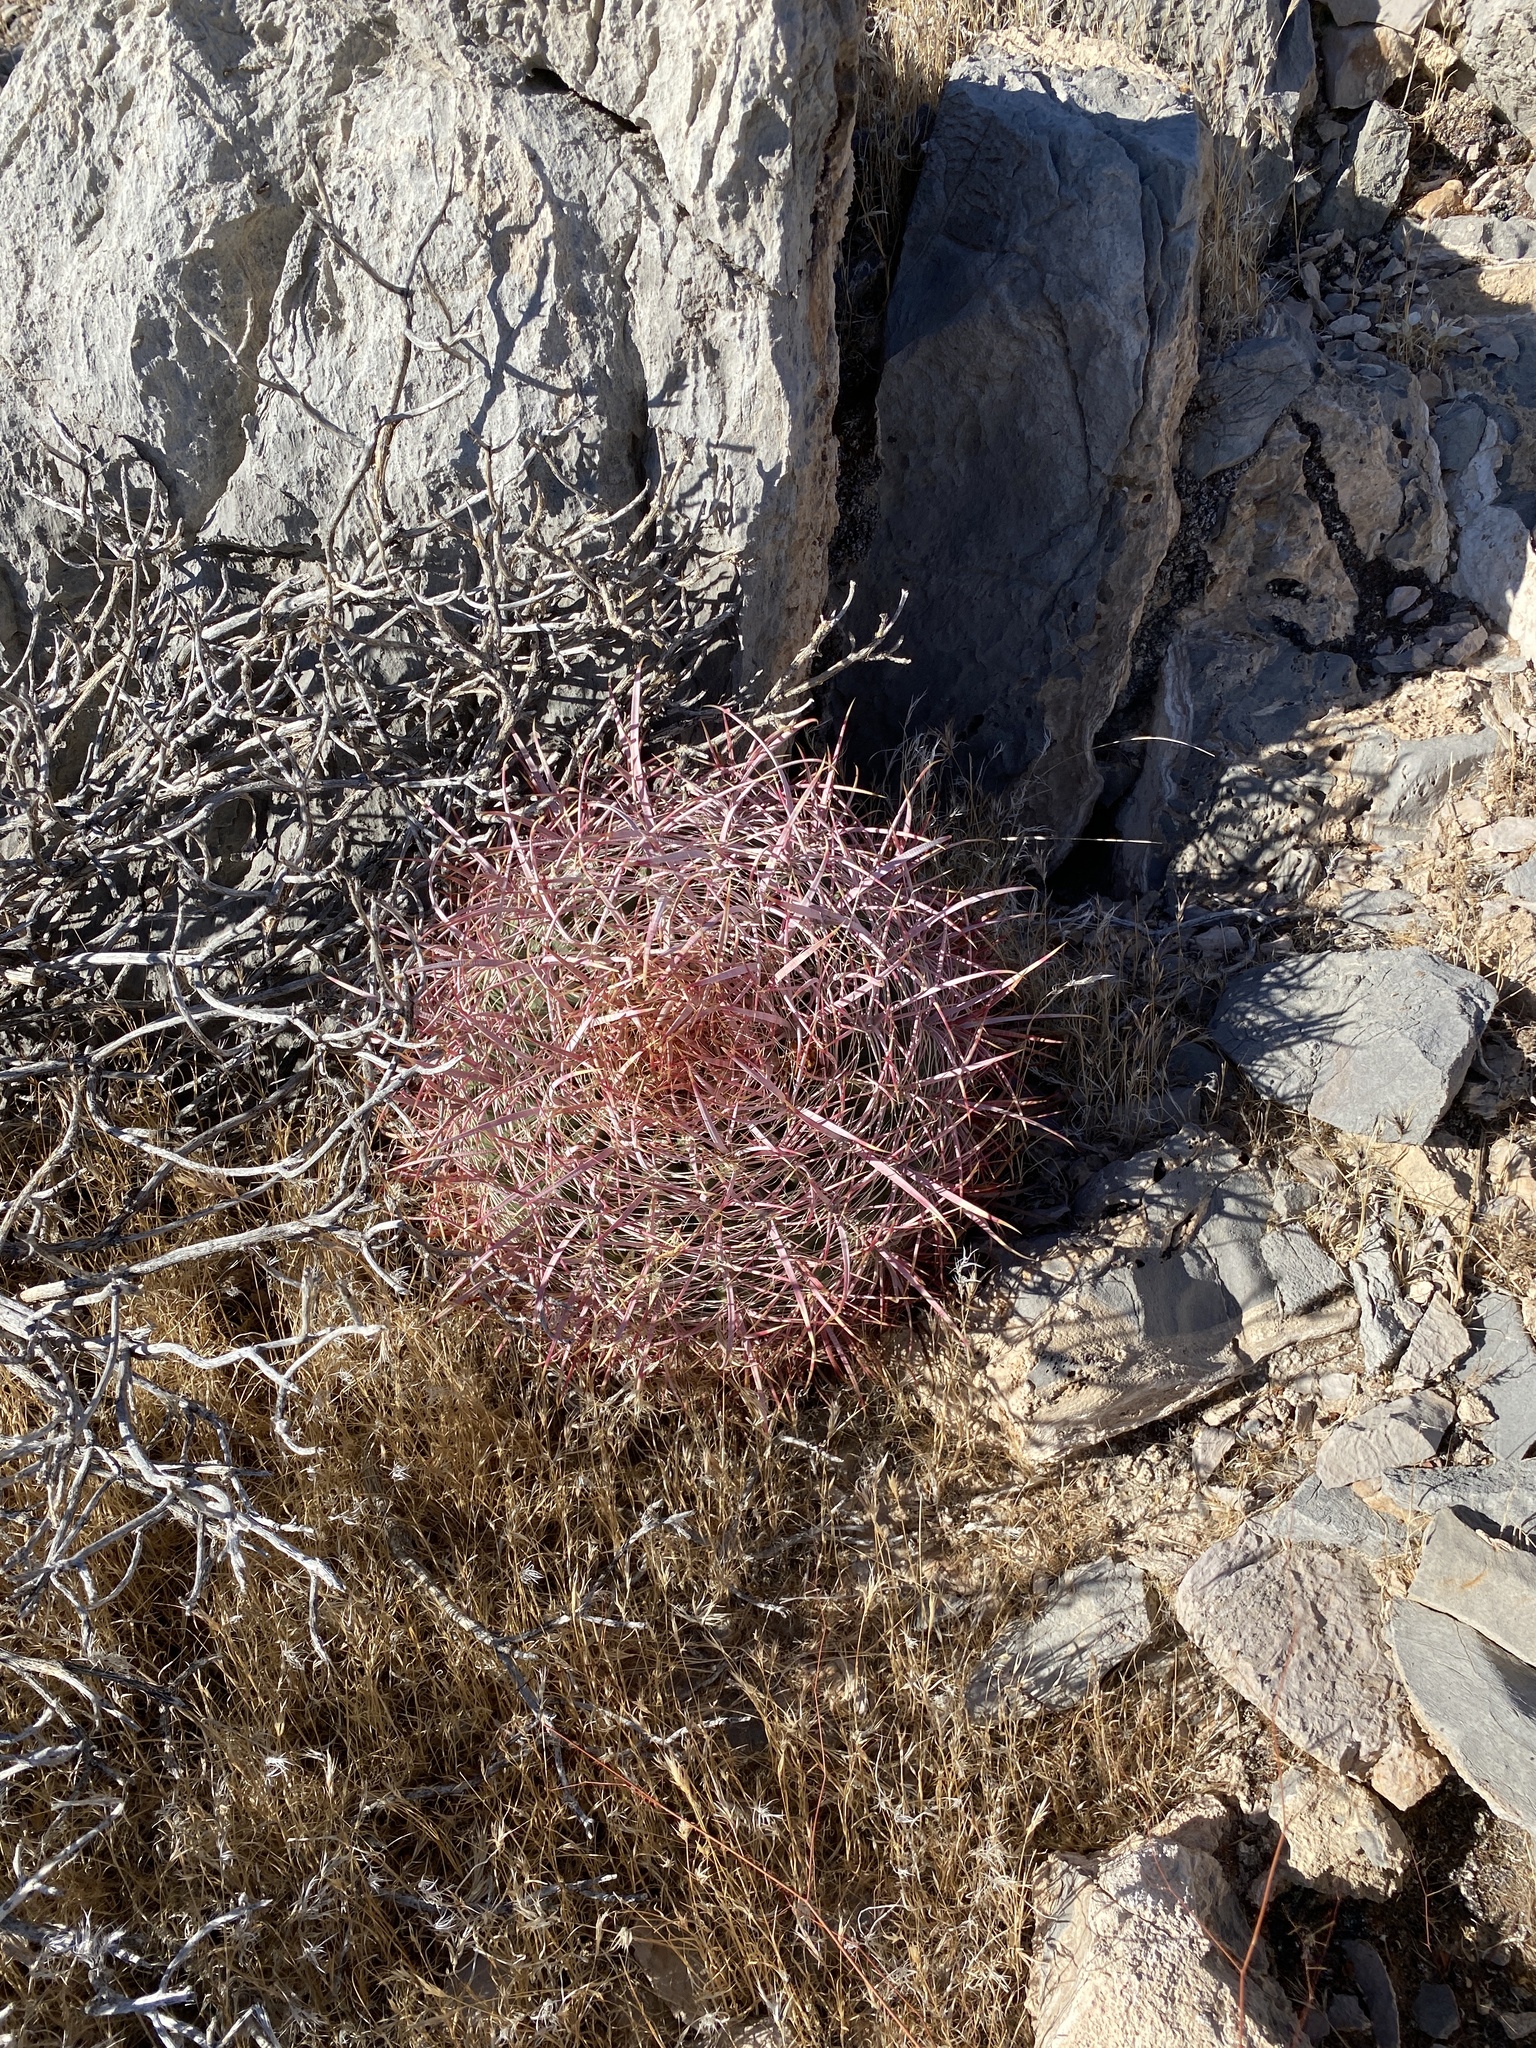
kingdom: Plantae
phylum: Tracheophyta
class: Magnoliopsida
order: Caryophyllales
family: Cactaceae
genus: Ferocactus
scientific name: Ferocactus cylindraceus
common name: California barrel cactus
